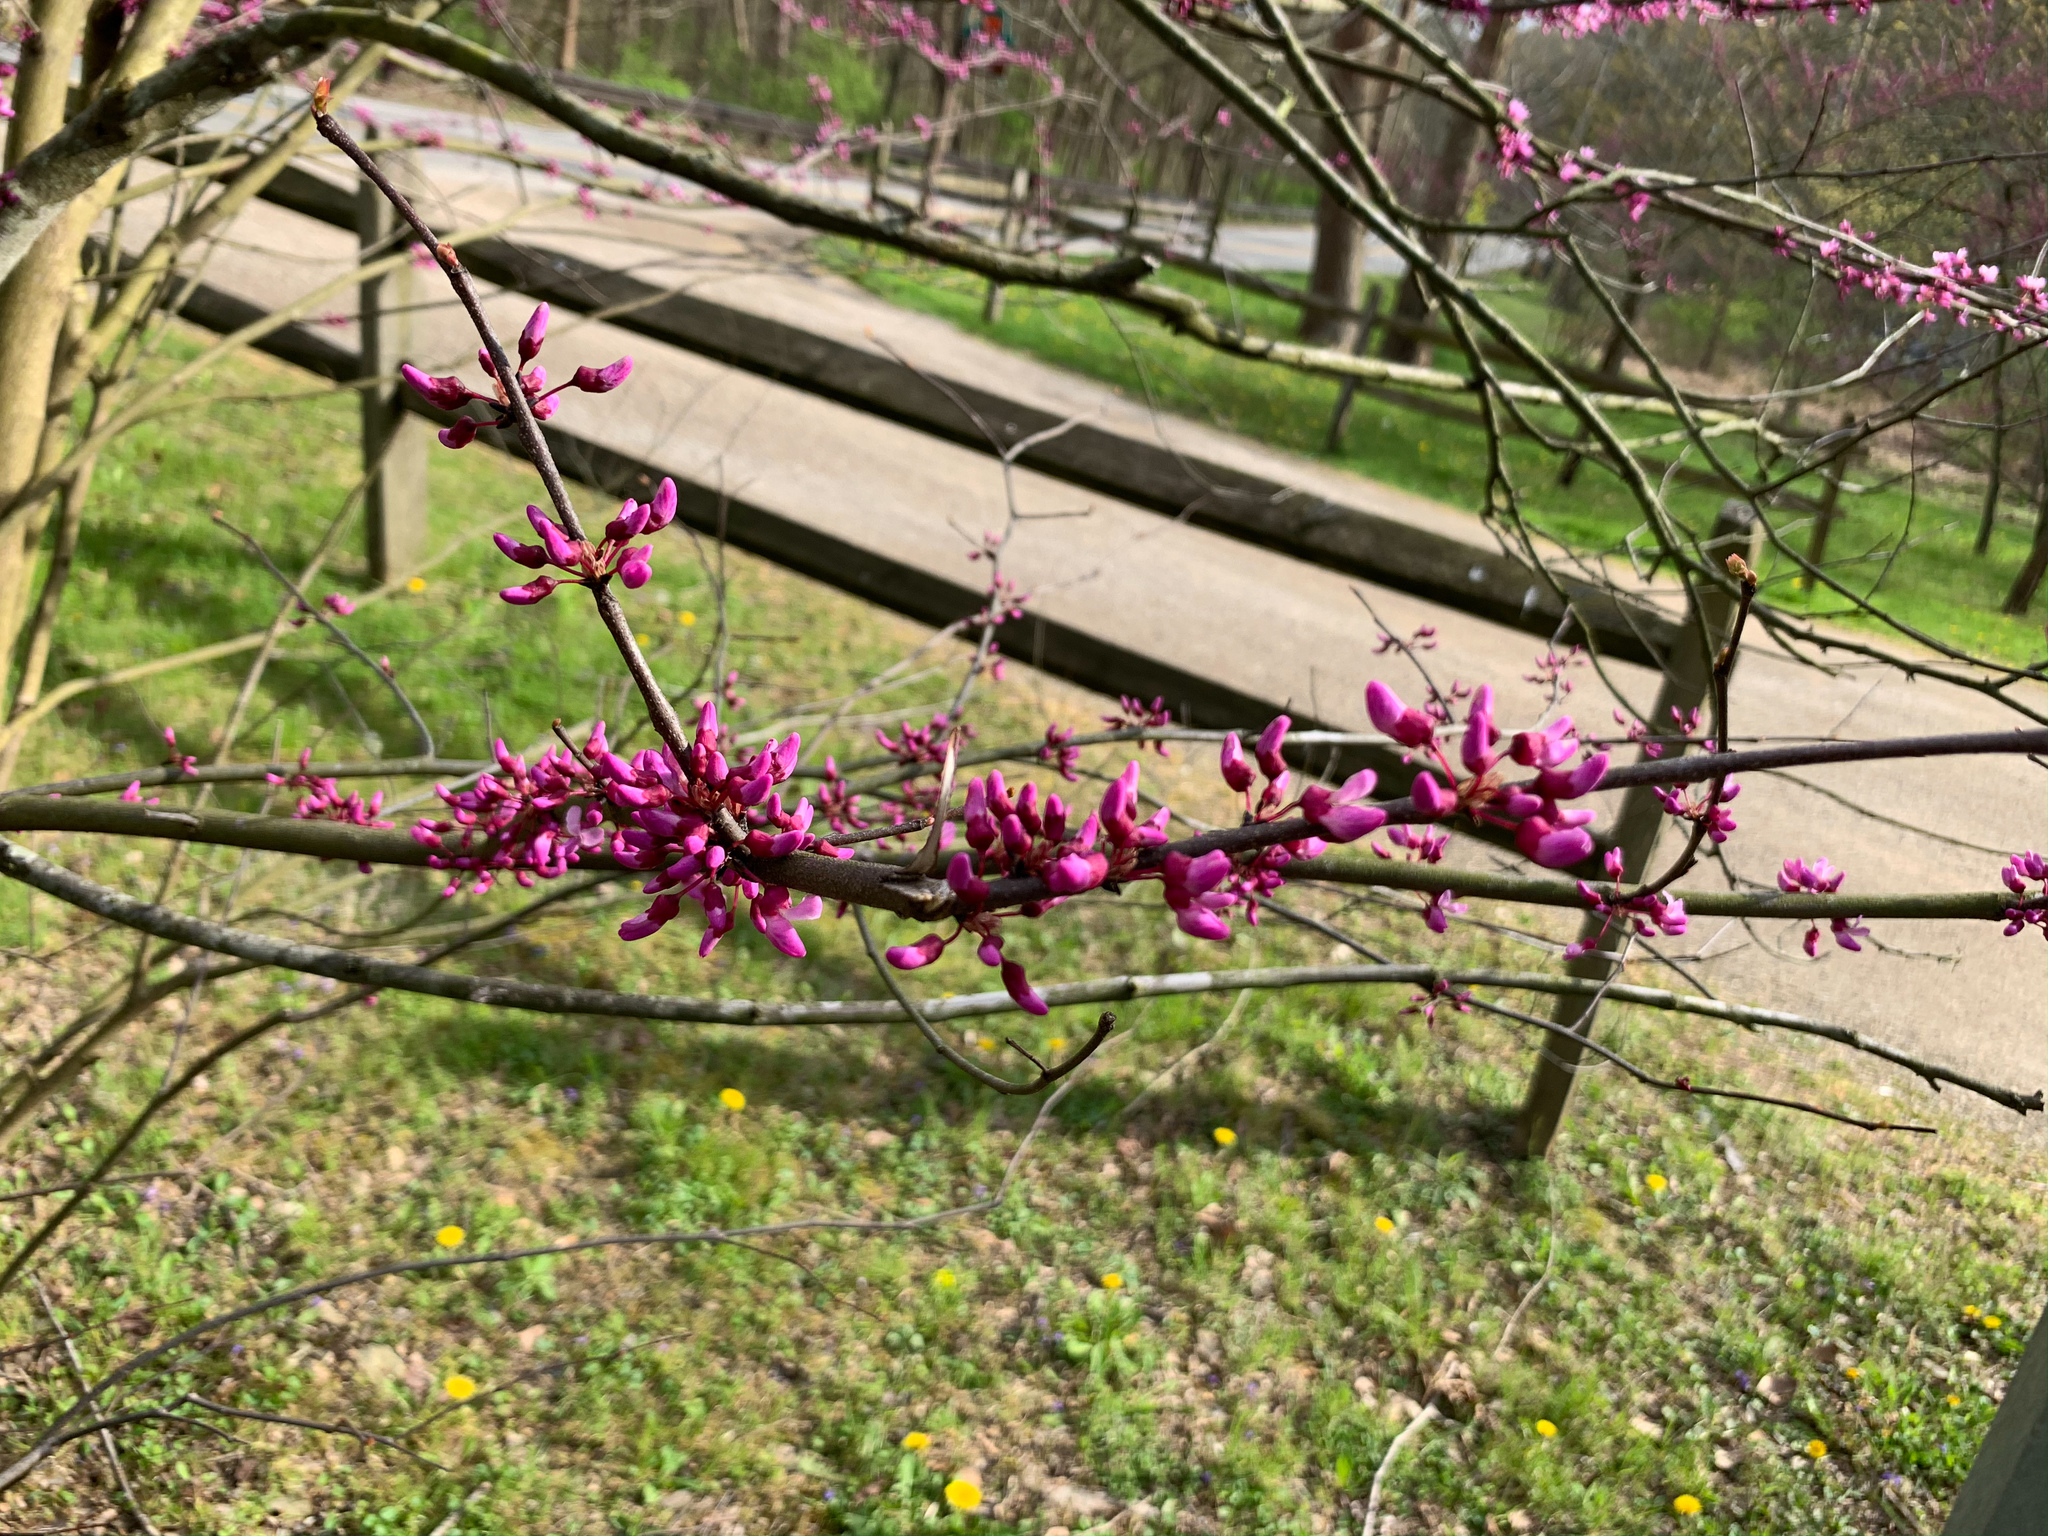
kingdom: Plantae
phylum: Tracheophyta
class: Magnoliopsida
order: Fabales
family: Fabaceae
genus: Cercis
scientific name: Cercis canadensis
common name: Eastern redbud
